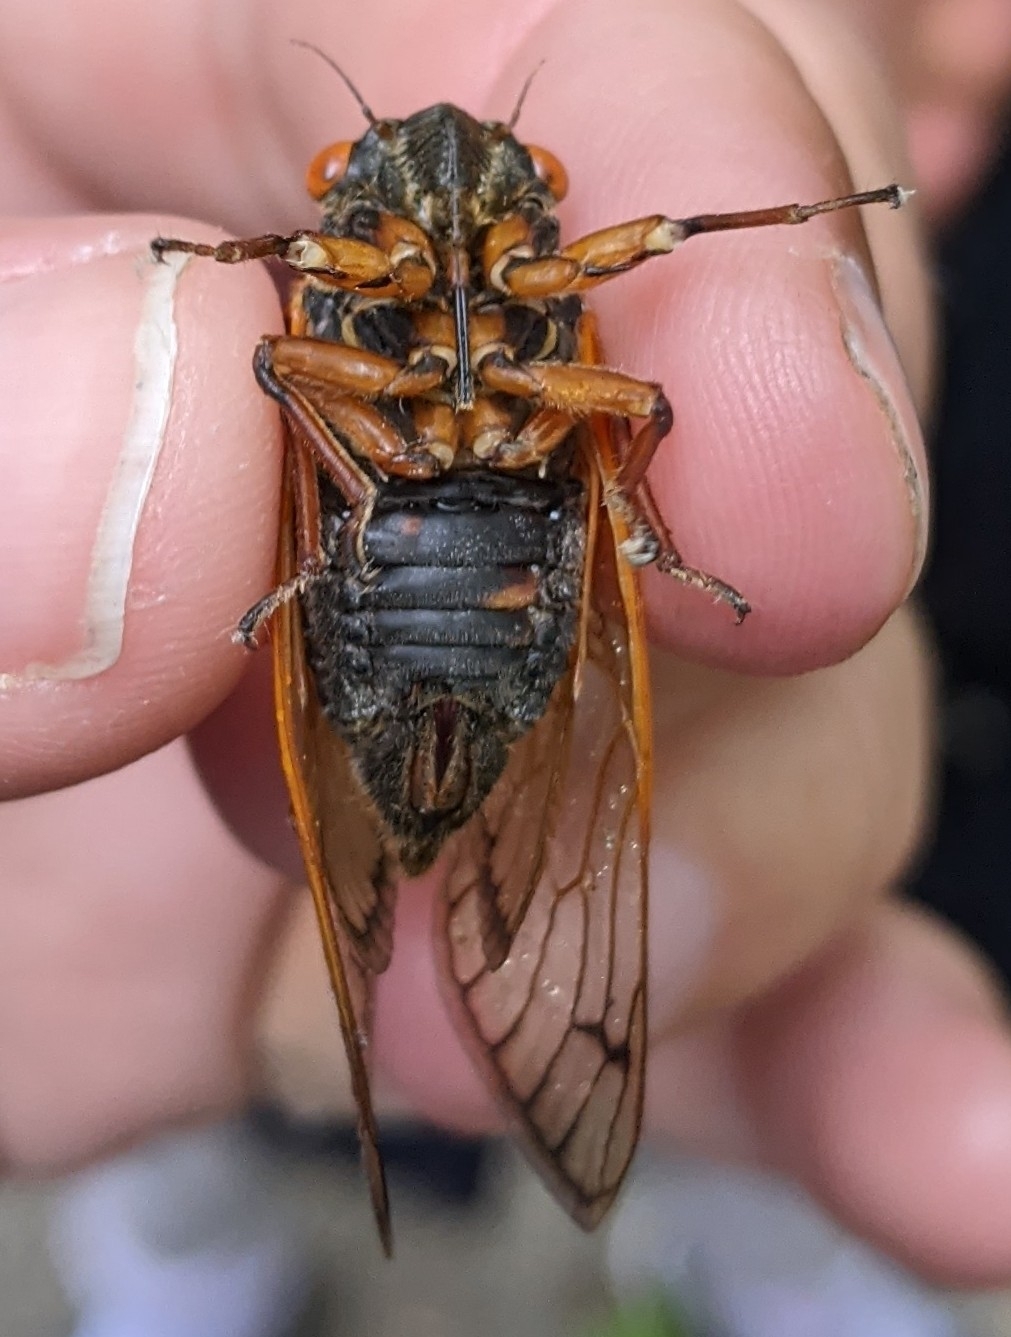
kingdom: Animalia
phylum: Arthropoda
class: Insecta
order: Hemiptera
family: Cicadidae
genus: Magicicada
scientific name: Magicicada cassini
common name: Cassin's 17-year cicada
